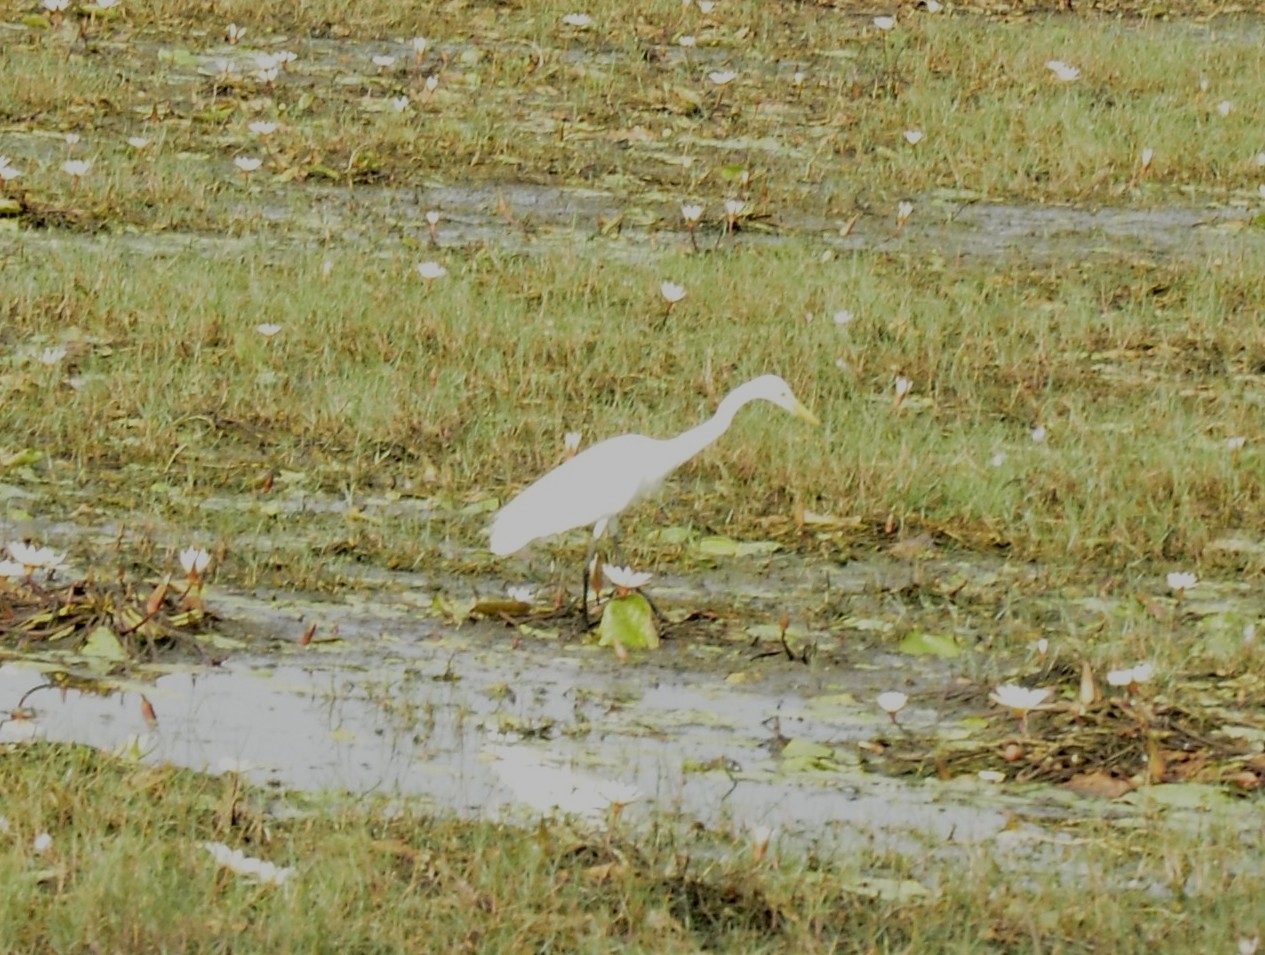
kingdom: Animalia
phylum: Chordata
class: Aves
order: Pelecaniformes
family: Ardeidae
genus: Egretta
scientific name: Egretta intermedia
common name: Intermediate egret
